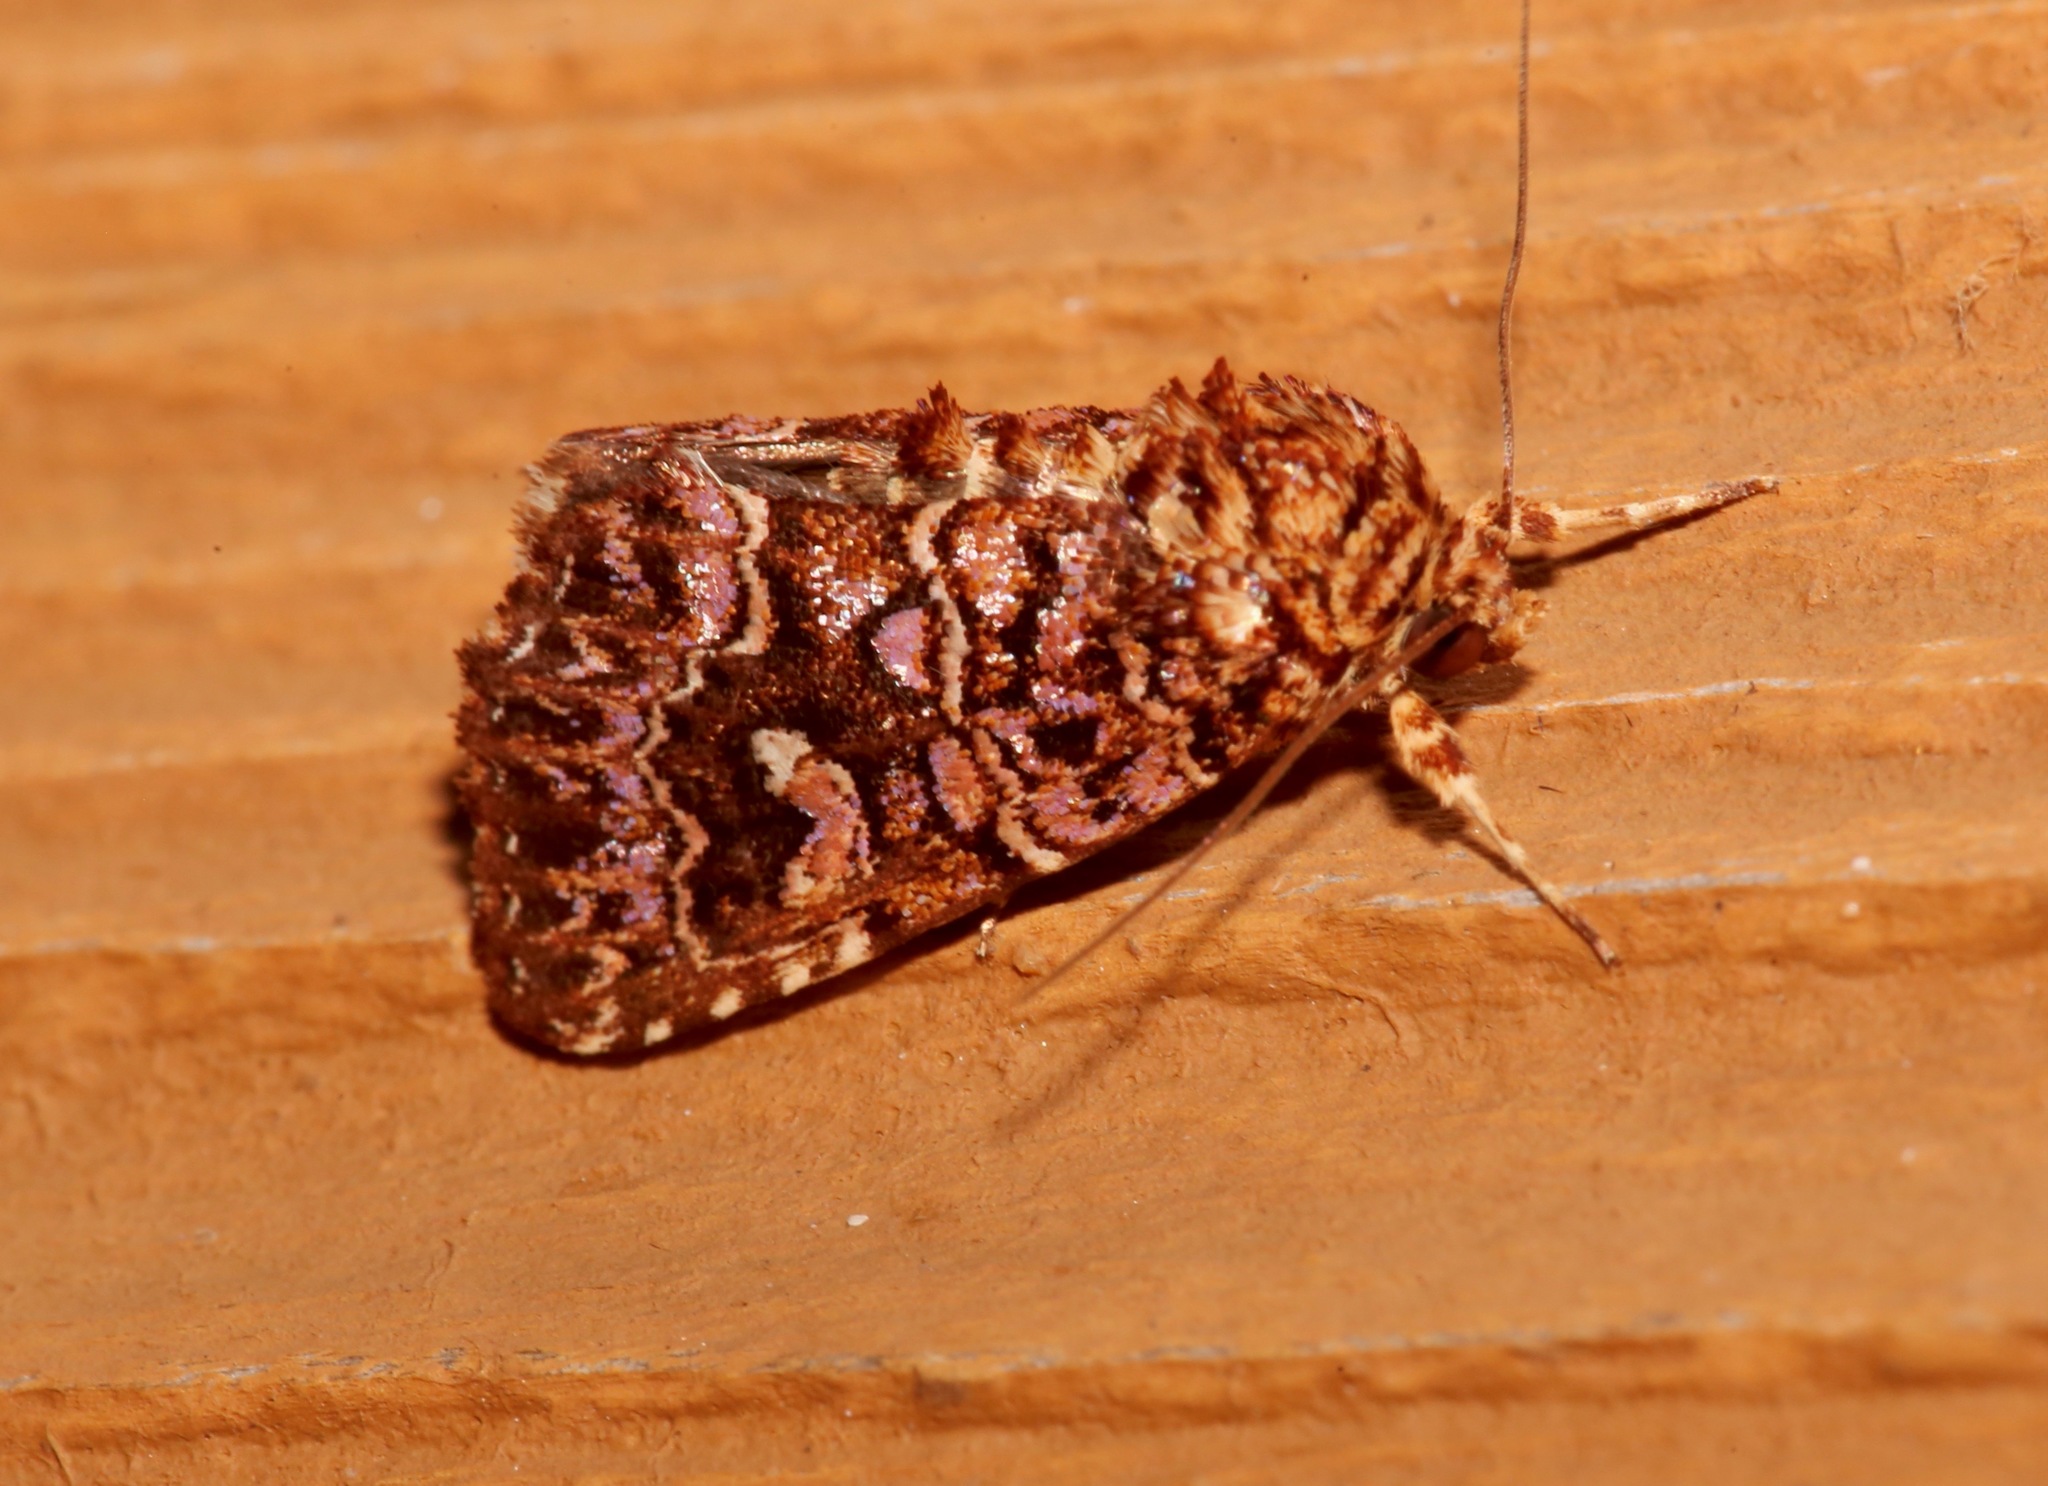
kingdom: Animalia
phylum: Arthropoda
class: Insecta
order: Lepidoptera
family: Noctuidae
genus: Callopistria
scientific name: Callopistria granitosa
